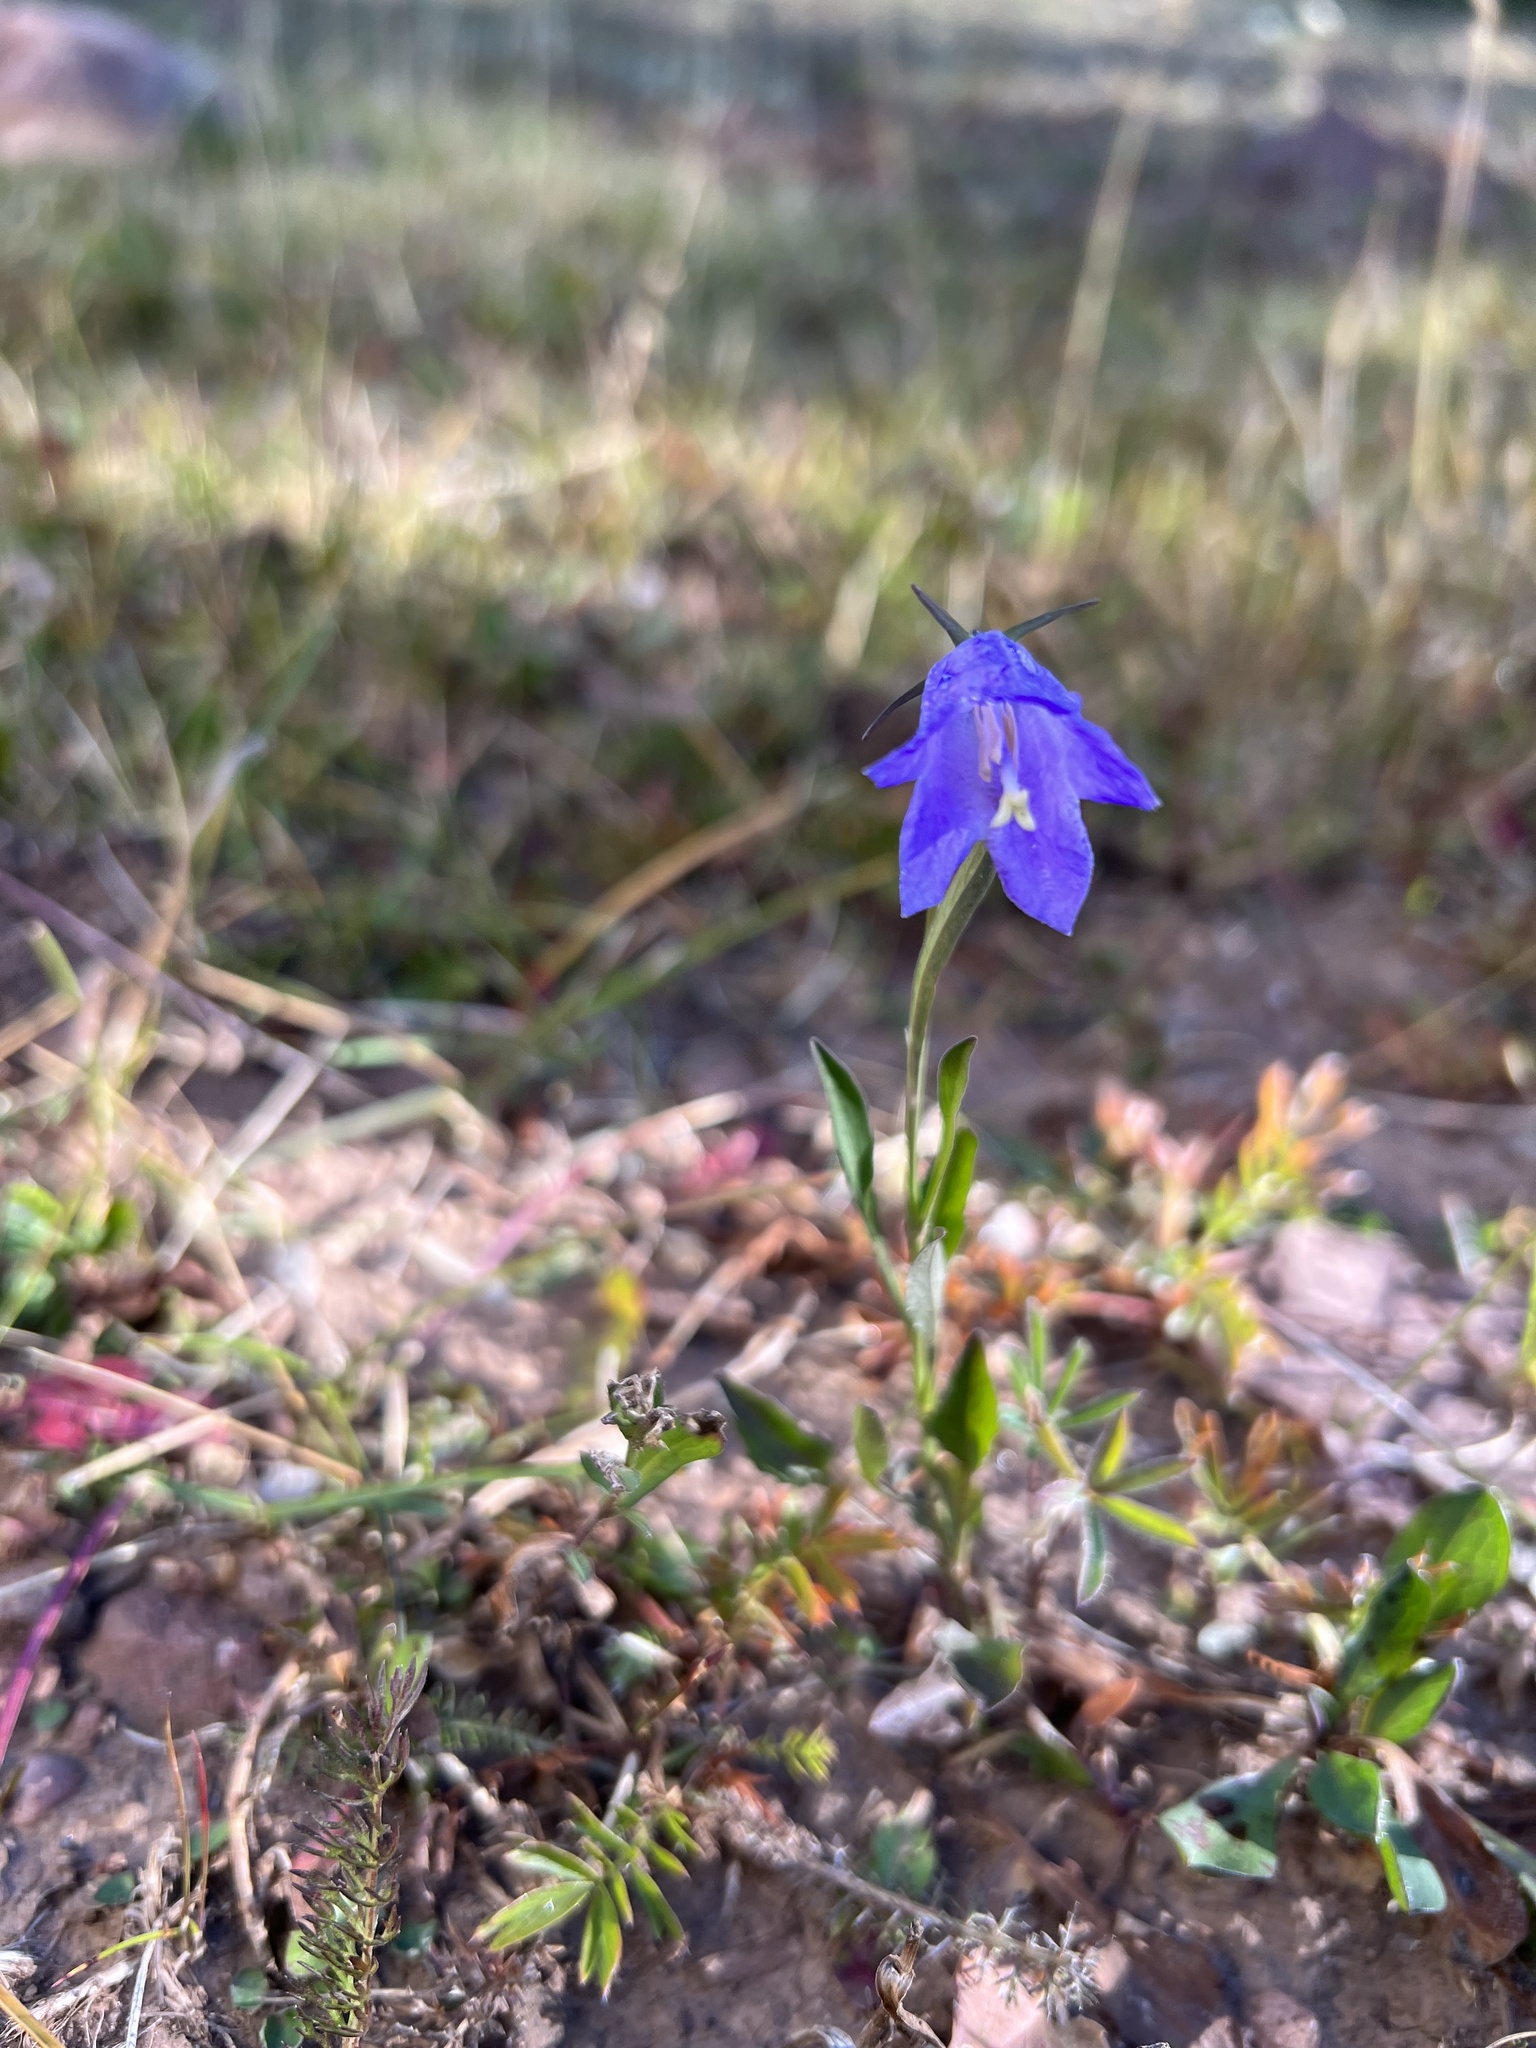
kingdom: Plantae
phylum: Tracheophyta
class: Magnoliopsida
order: Asterales
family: Campanulaceae
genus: Campanula
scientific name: Campanula petiolata
